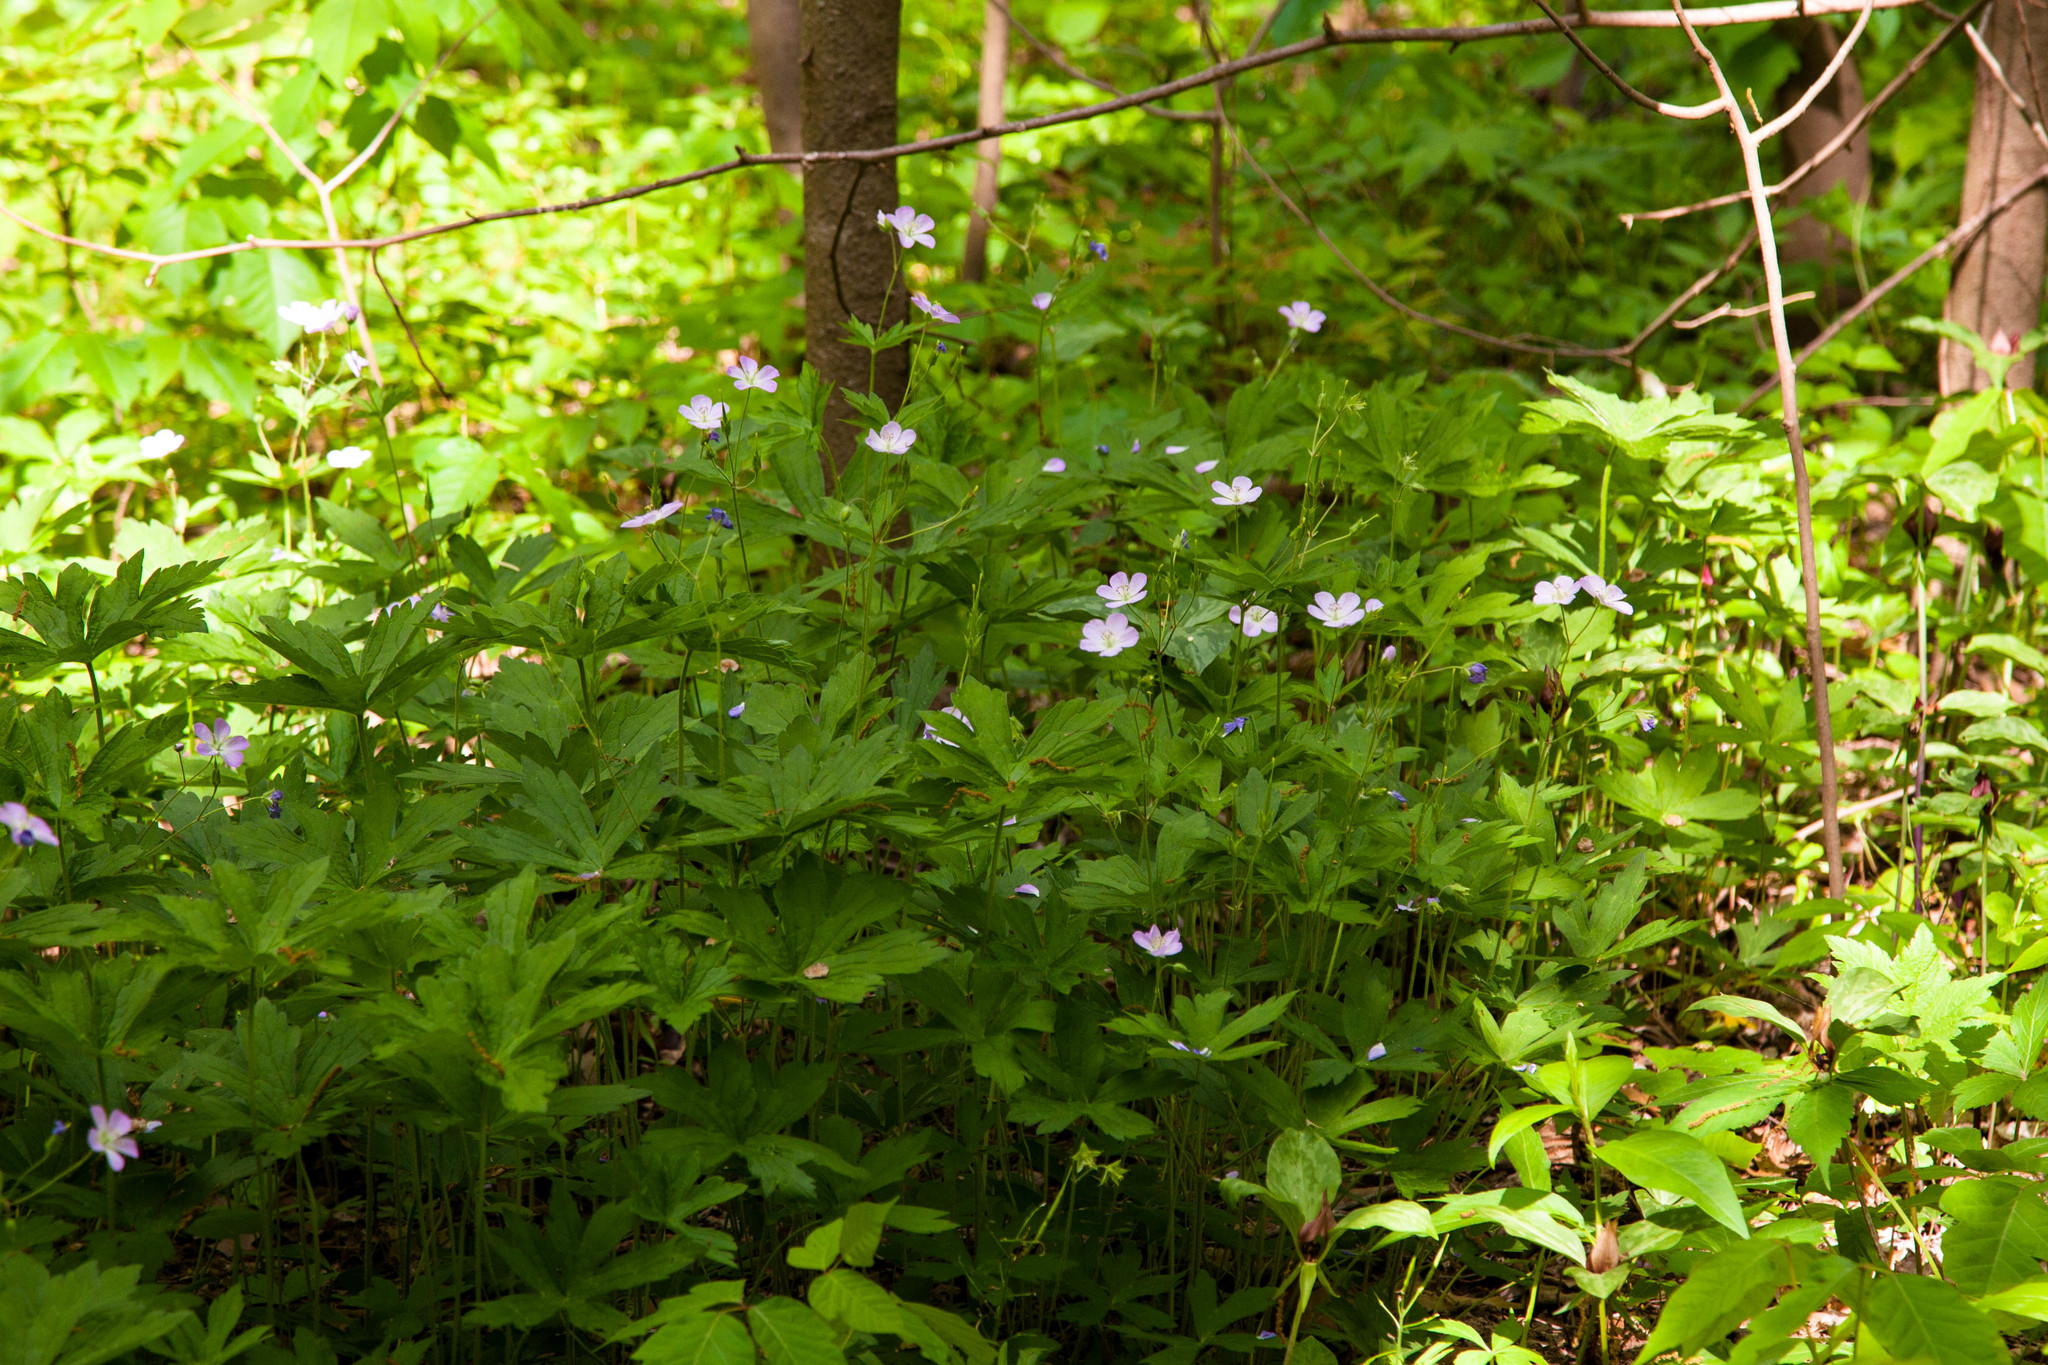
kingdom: Plantae
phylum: Tracheophyta
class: Magnoliopsida
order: Geraniales
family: Geraniaceae
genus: Geranium
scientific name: Geranium maculatum
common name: Spotted geranium
